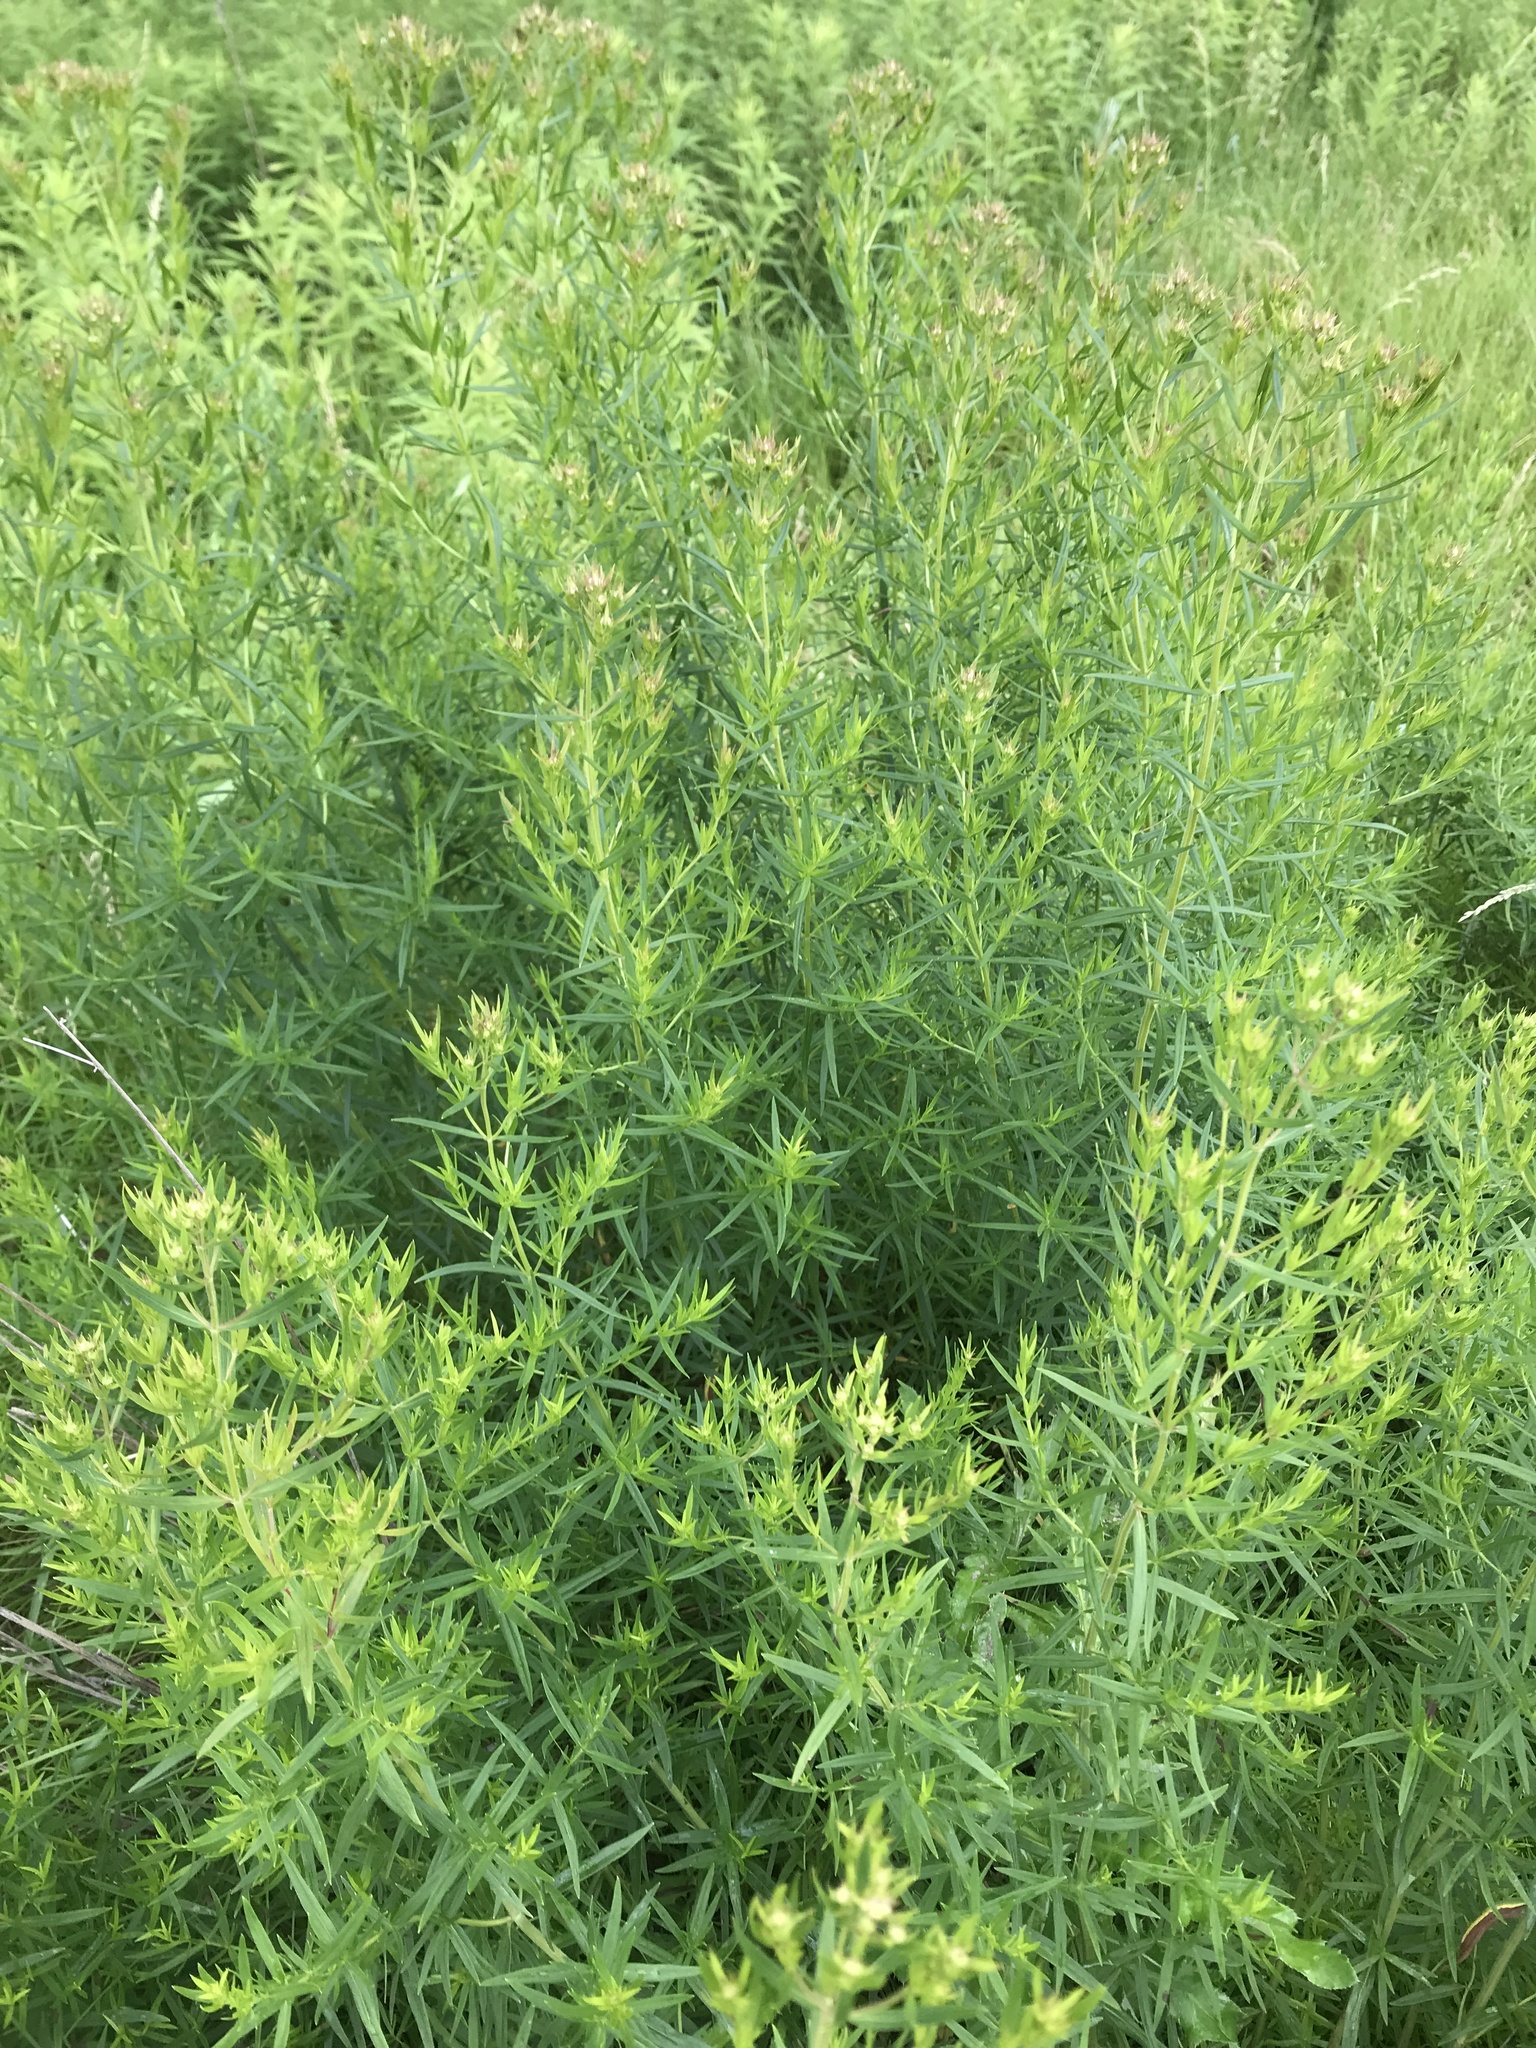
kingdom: Plantae
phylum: Tracheophyta
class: Magnoliopsida
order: Lamiales
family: Lamiaceae
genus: Pycnanthemum
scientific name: Pycnanthemum virginianum
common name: Virginia mountain-mint
